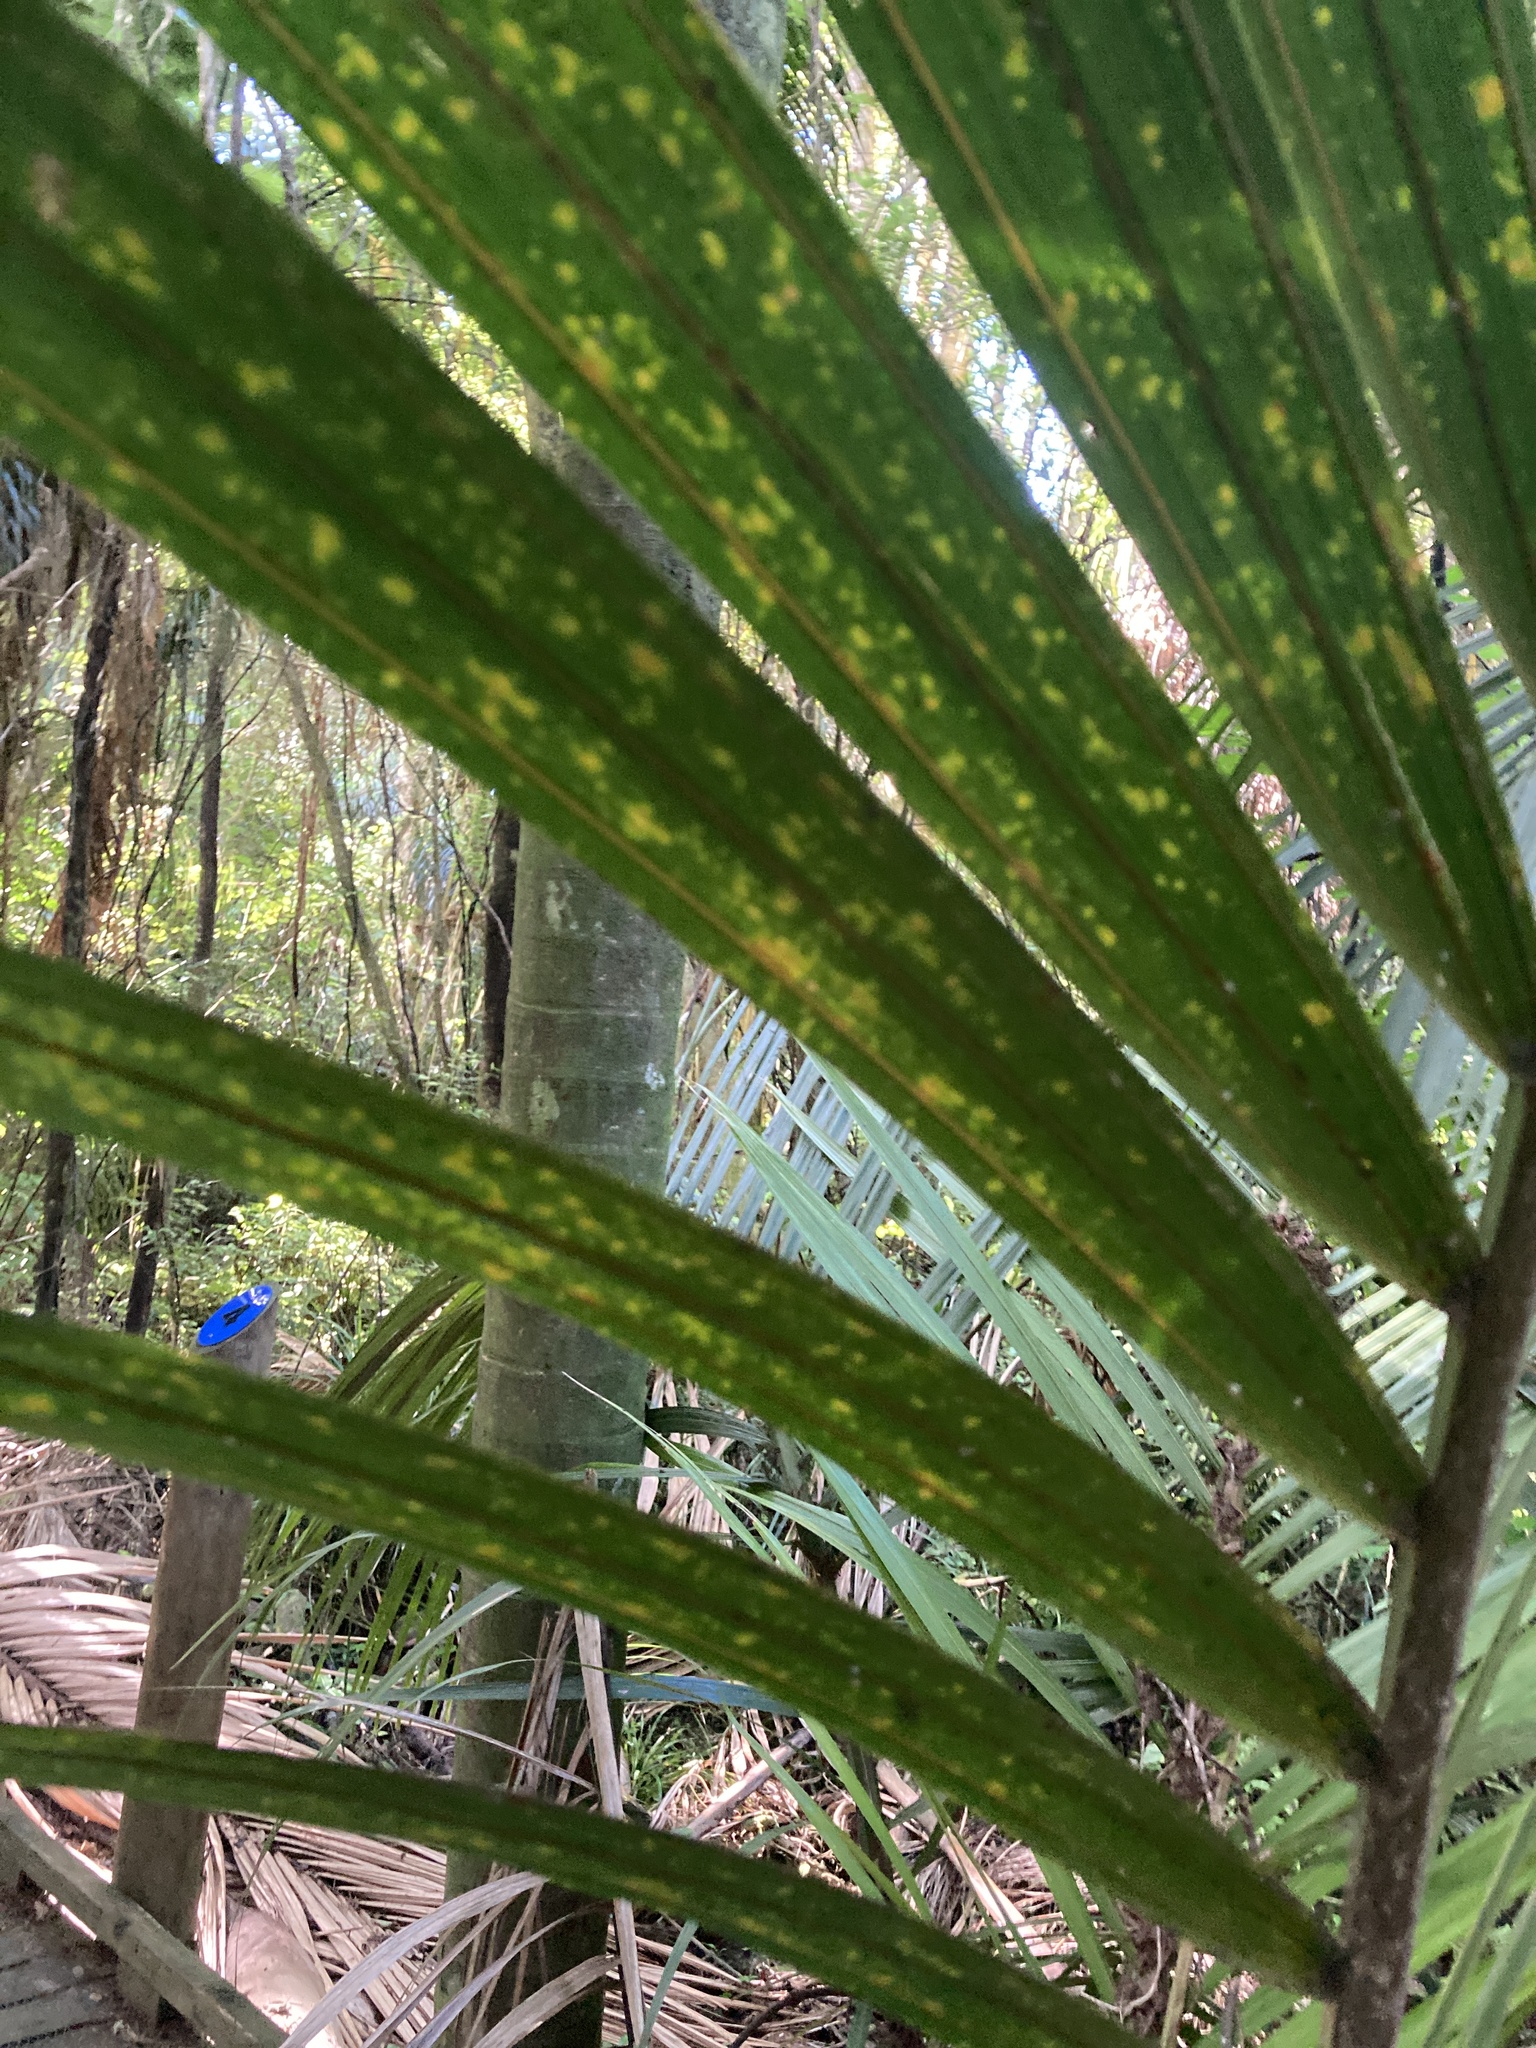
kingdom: Plantae
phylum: Tracheophyta
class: Liliopsida
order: Arecales
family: Arecaceae
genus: Rhopalostylis
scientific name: Rhopalostylis sapida
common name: Feather-duster palm
